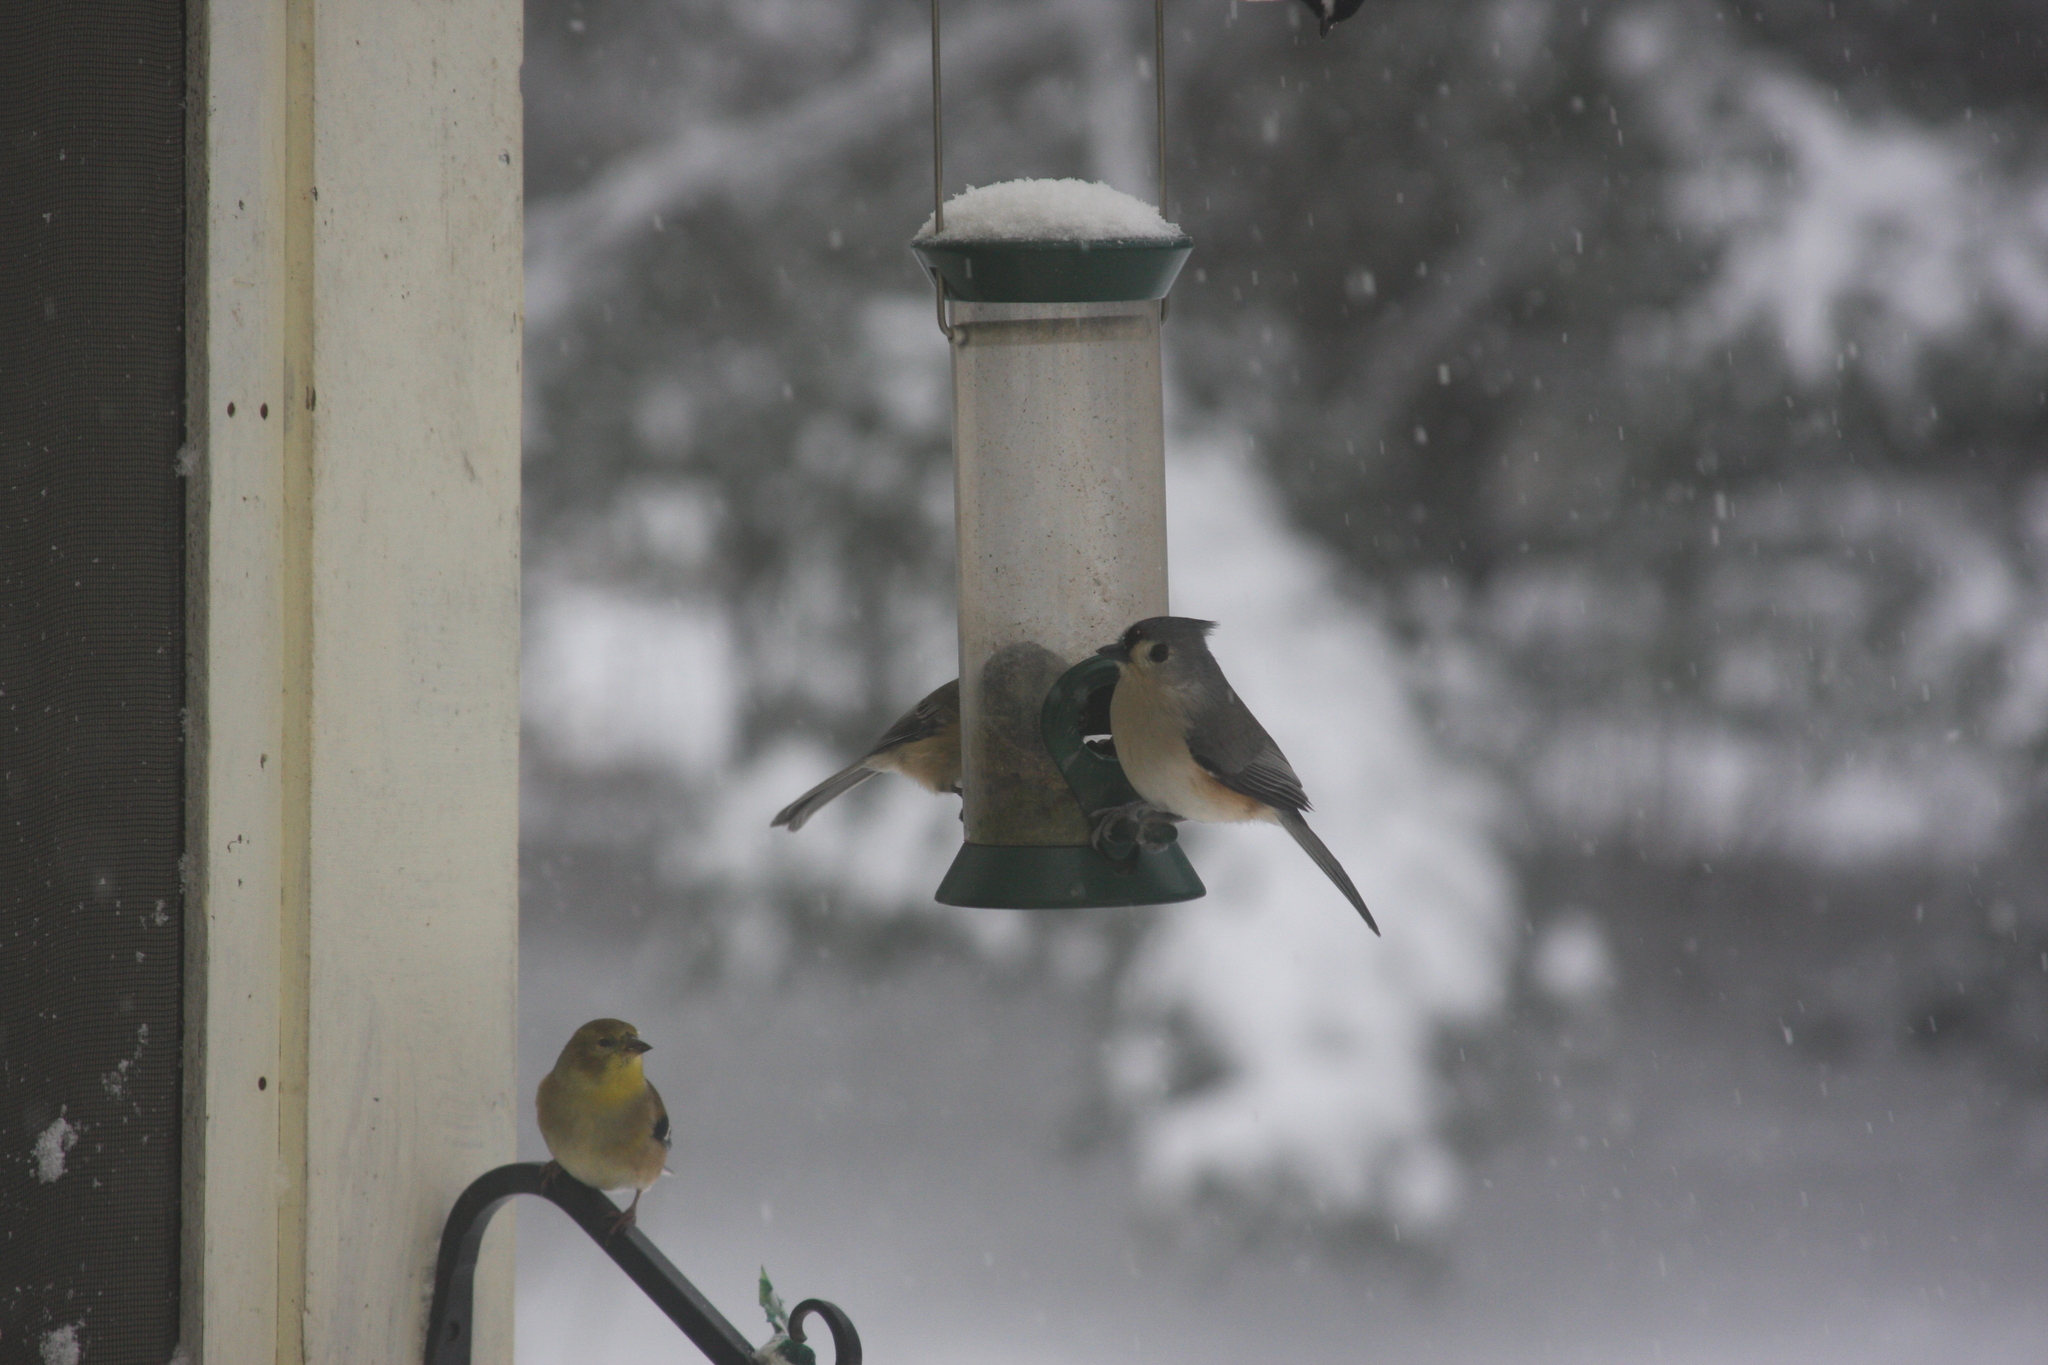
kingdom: Animalia
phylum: Chordata
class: Aves
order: Passeriformes
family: Fringillidae
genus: Spinus
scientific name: Spinus tristis
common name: American goldfinch
